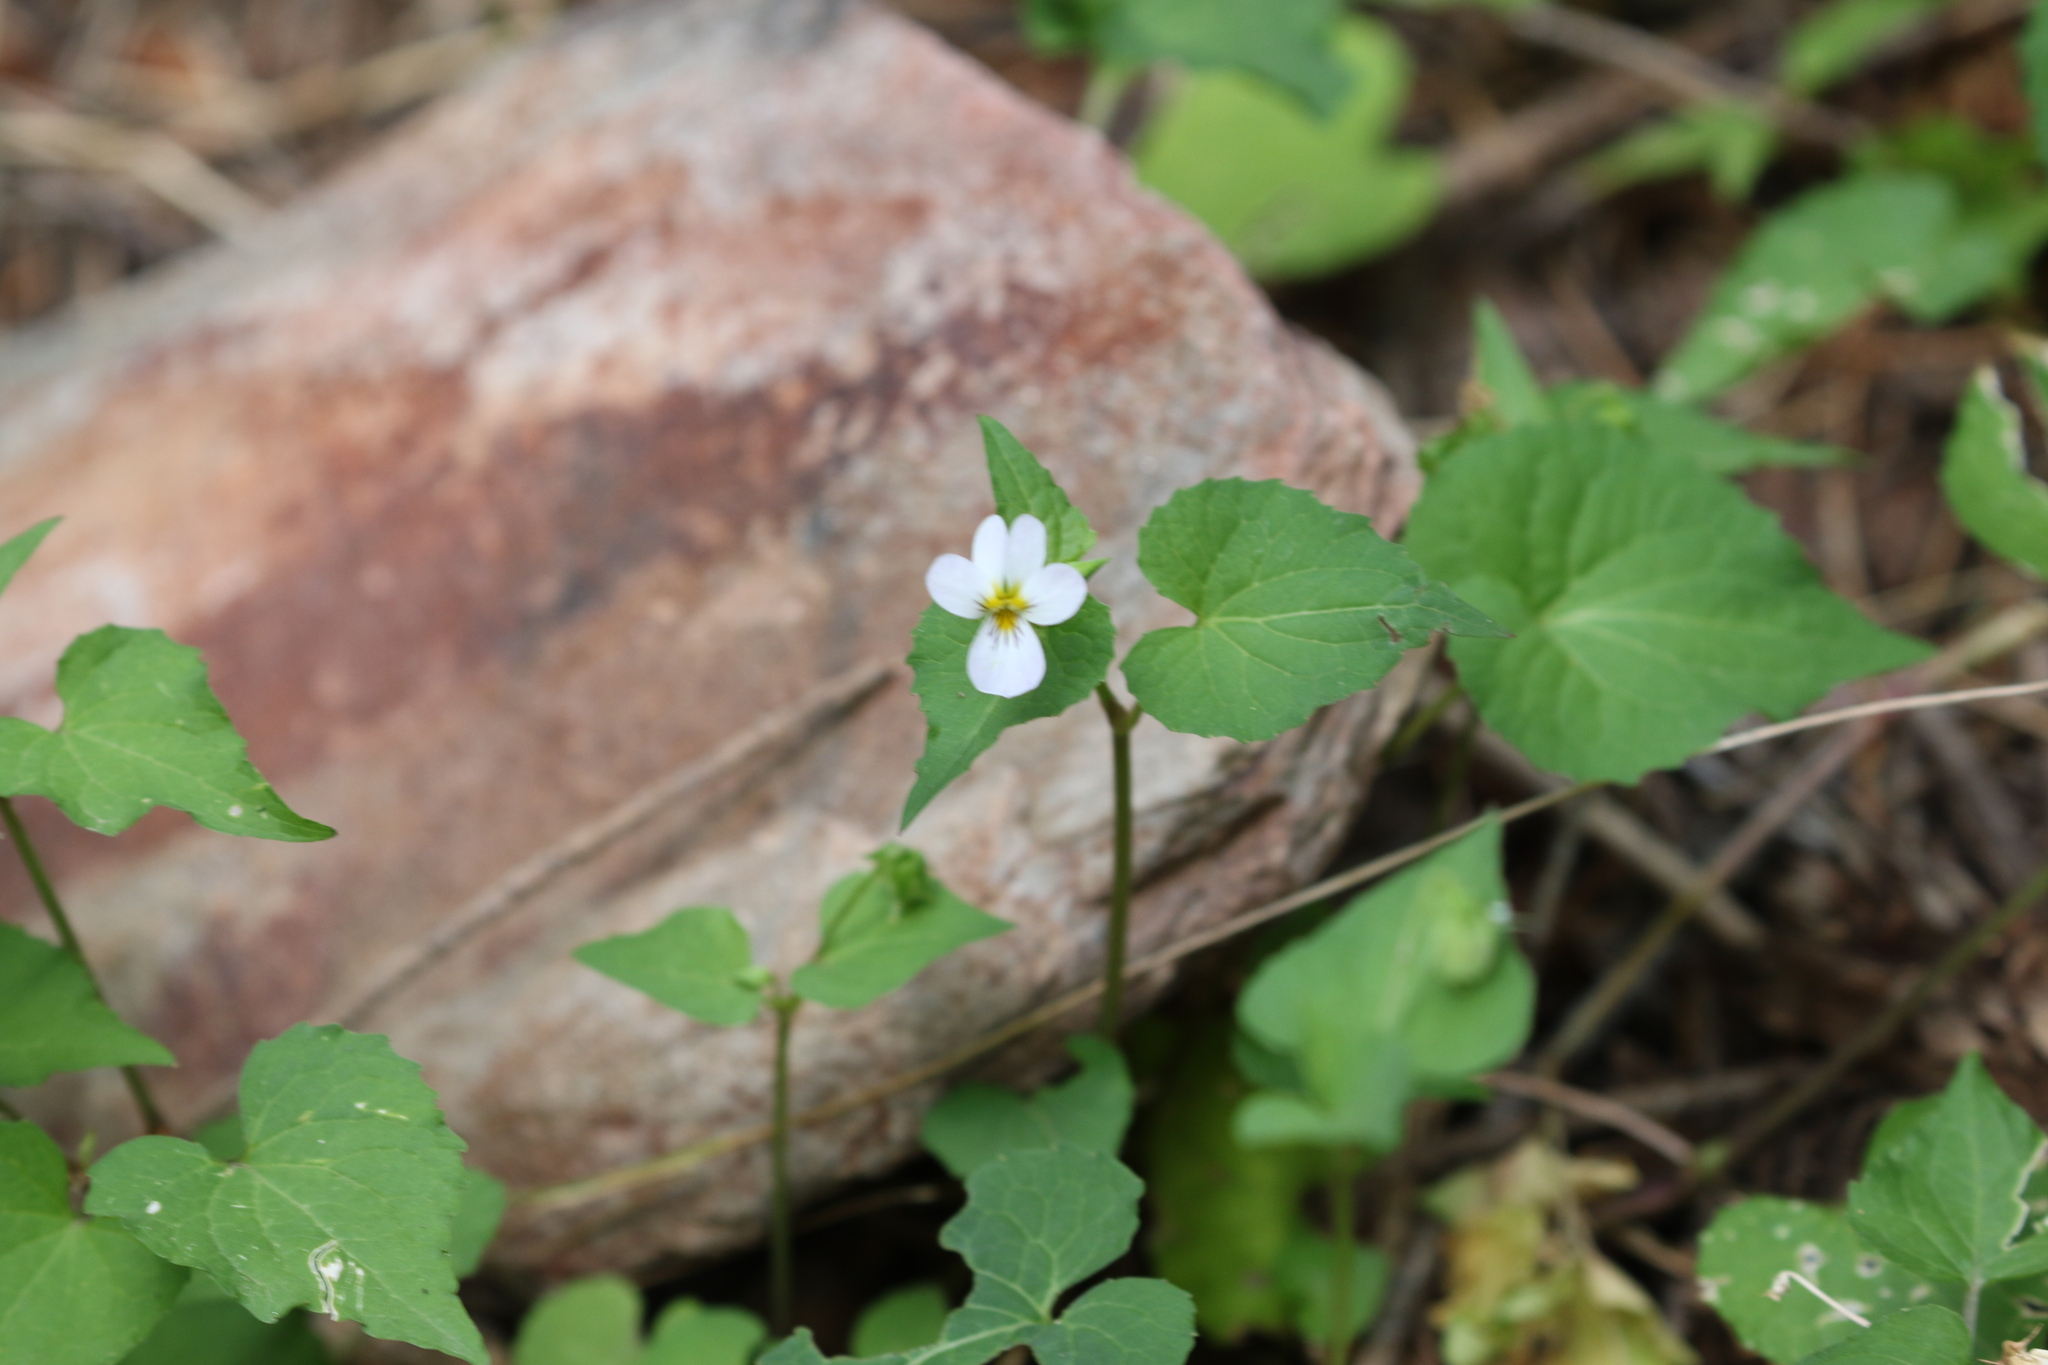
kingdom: Plantae
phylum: Tracheophyta
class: Magnoliopsida
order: Malpighiales
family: Violaceae
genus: Viola
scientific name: Viola canadensis
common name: Canada violet
